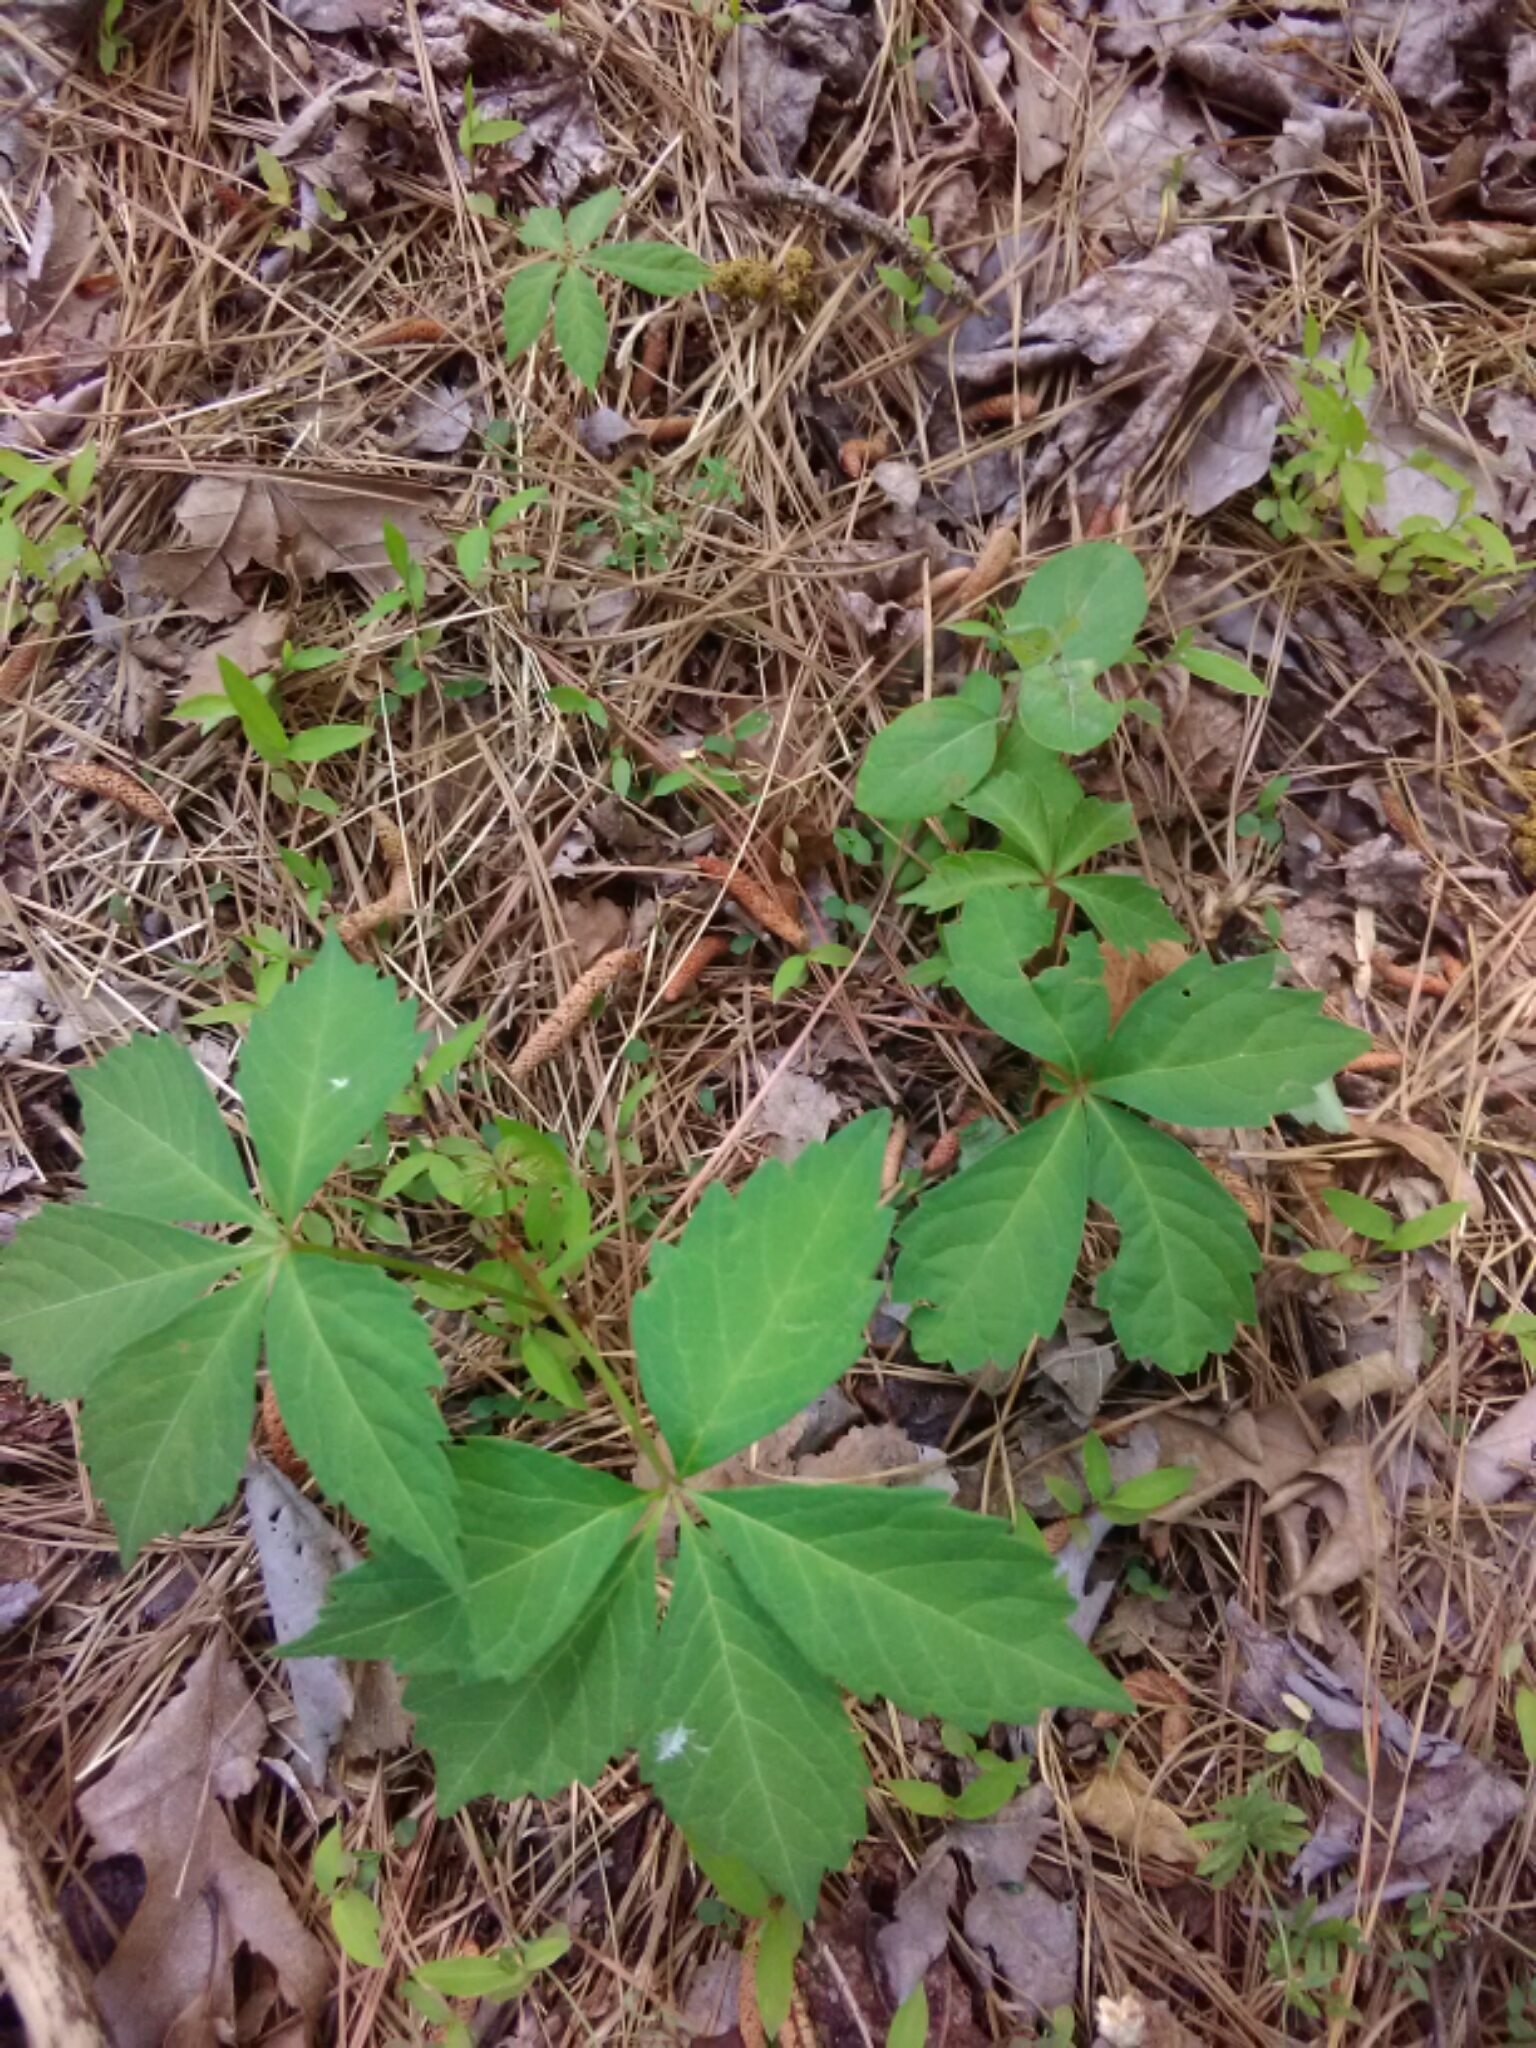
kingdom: Plantae
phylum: Tracheophyta
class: Magnoliopsida
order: Vitales
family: Vitaceae
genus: Parthenocissus
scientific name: Parthenocissus quinquefolia
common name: Virginia-creeper
